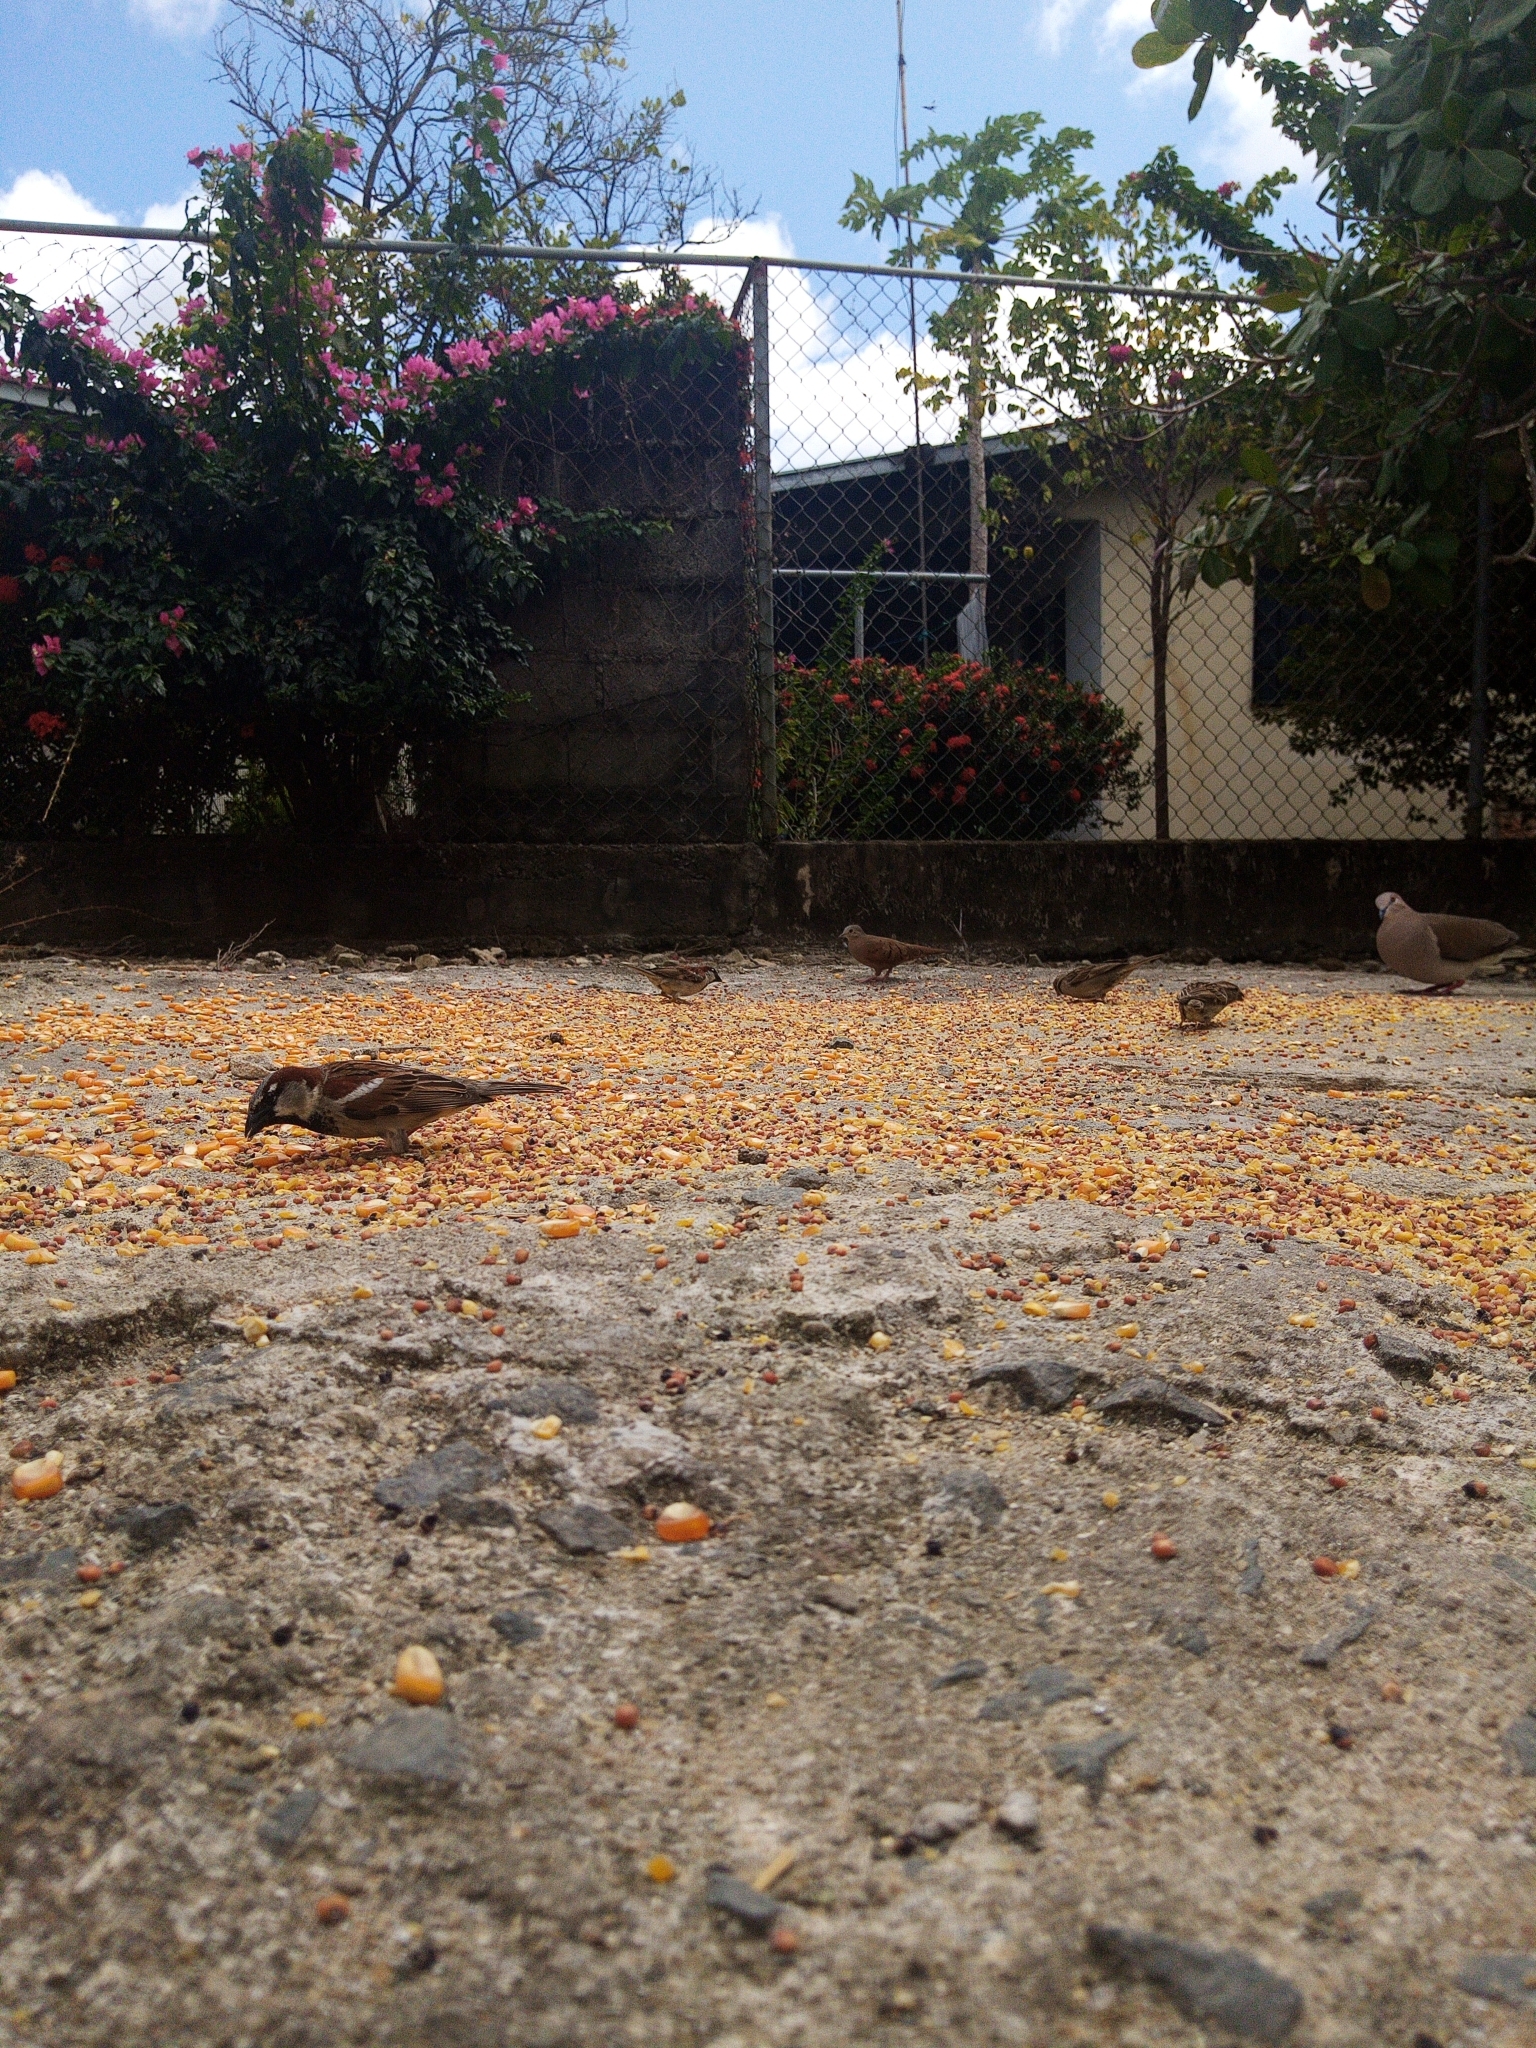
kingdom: Animalia
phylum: Chordata
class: Aves
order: Passeriformes
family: Passeridae
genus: Passer
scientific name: Passer domesticus
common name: House sparrow
